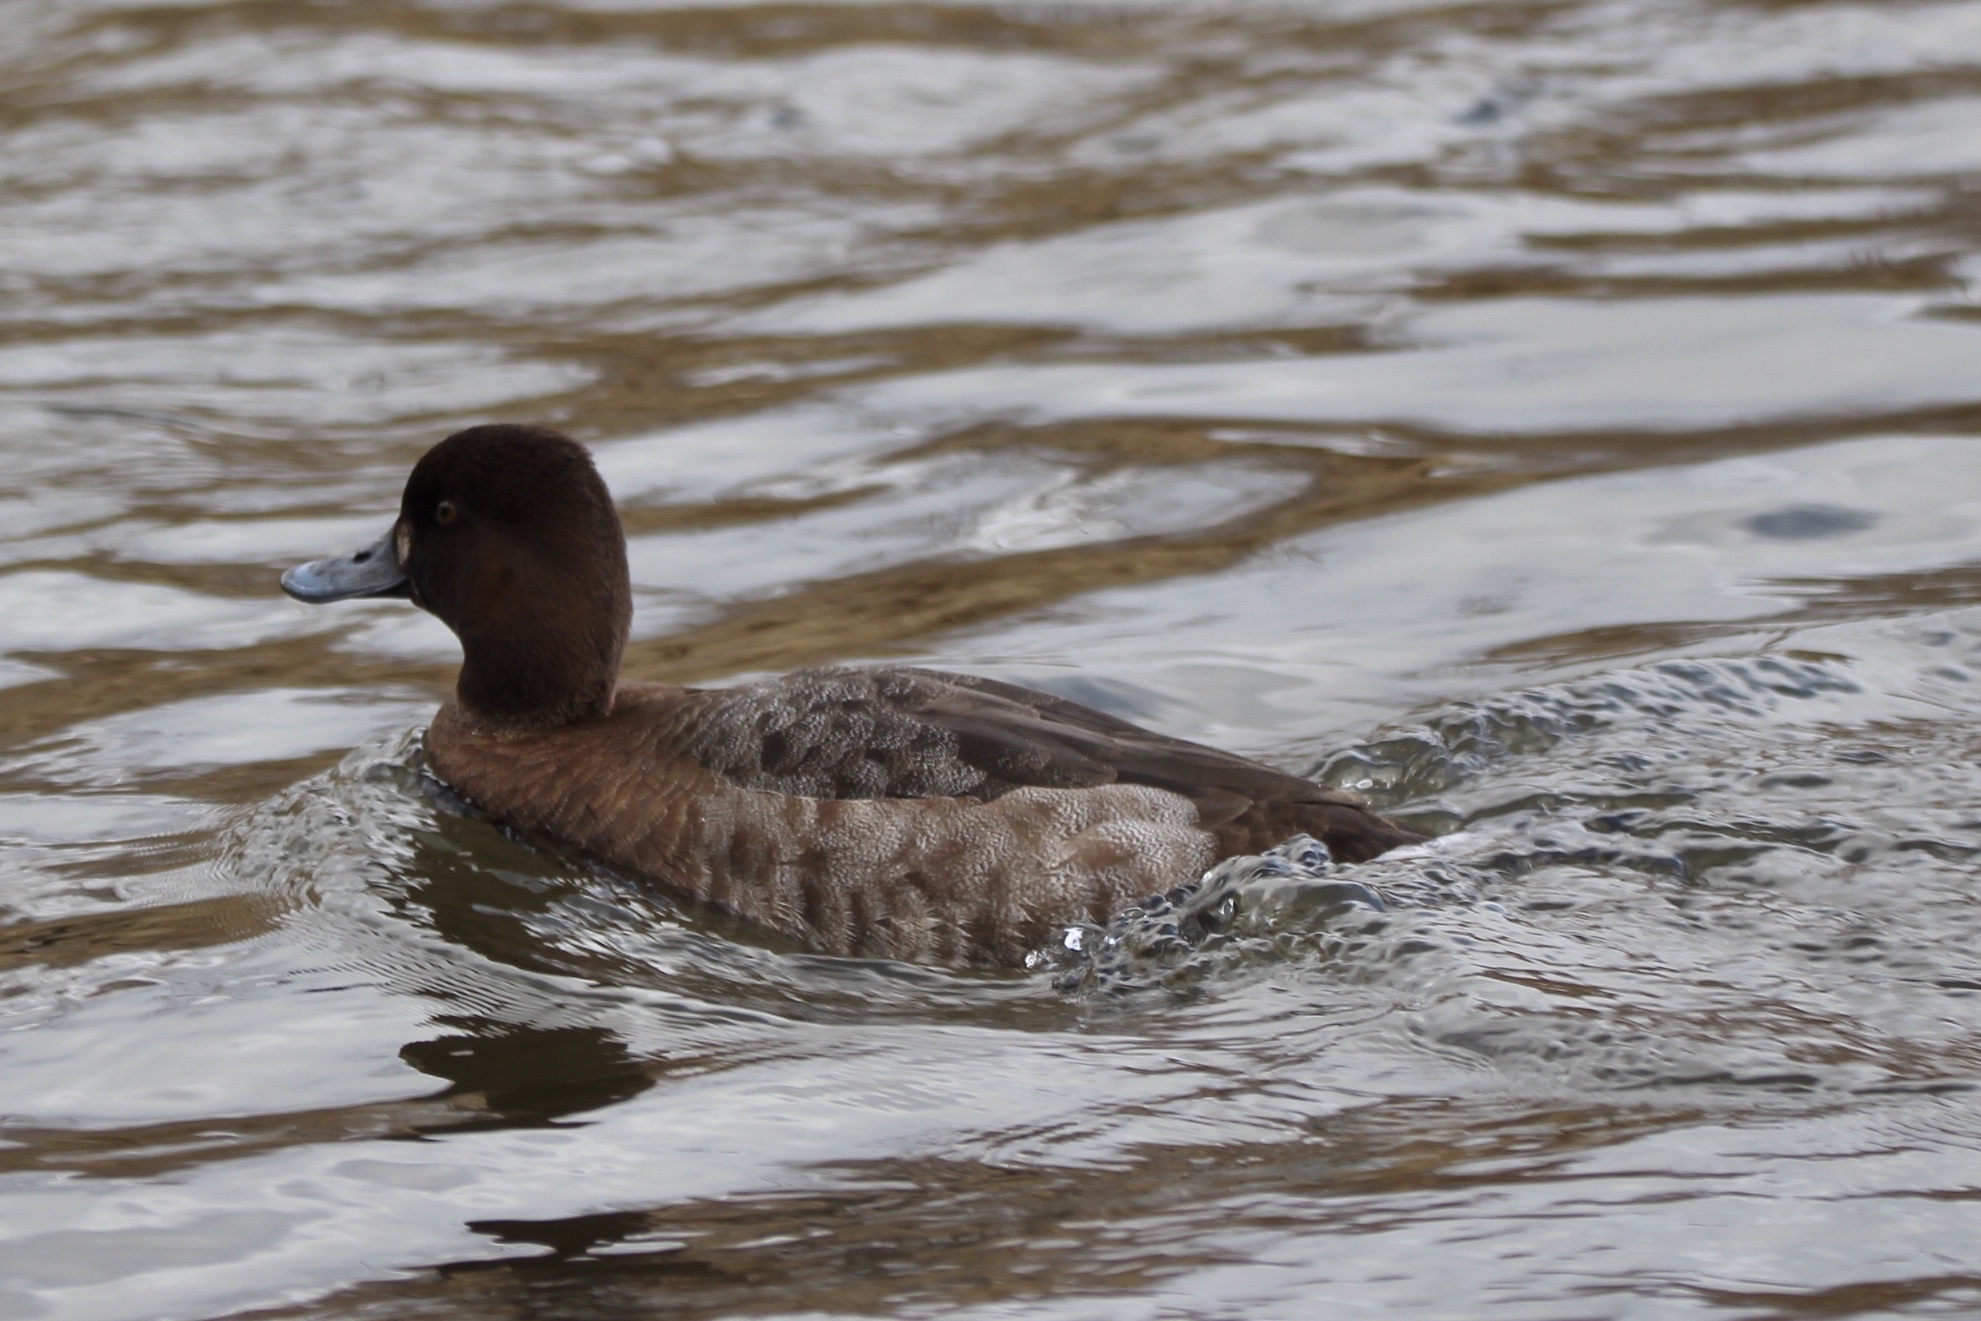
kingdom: Animalia
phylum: Chordata
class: Aves
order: Anseriformes
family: Anatidae
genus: Aythya
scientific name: Aythya affinis
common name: Lesser scaup
